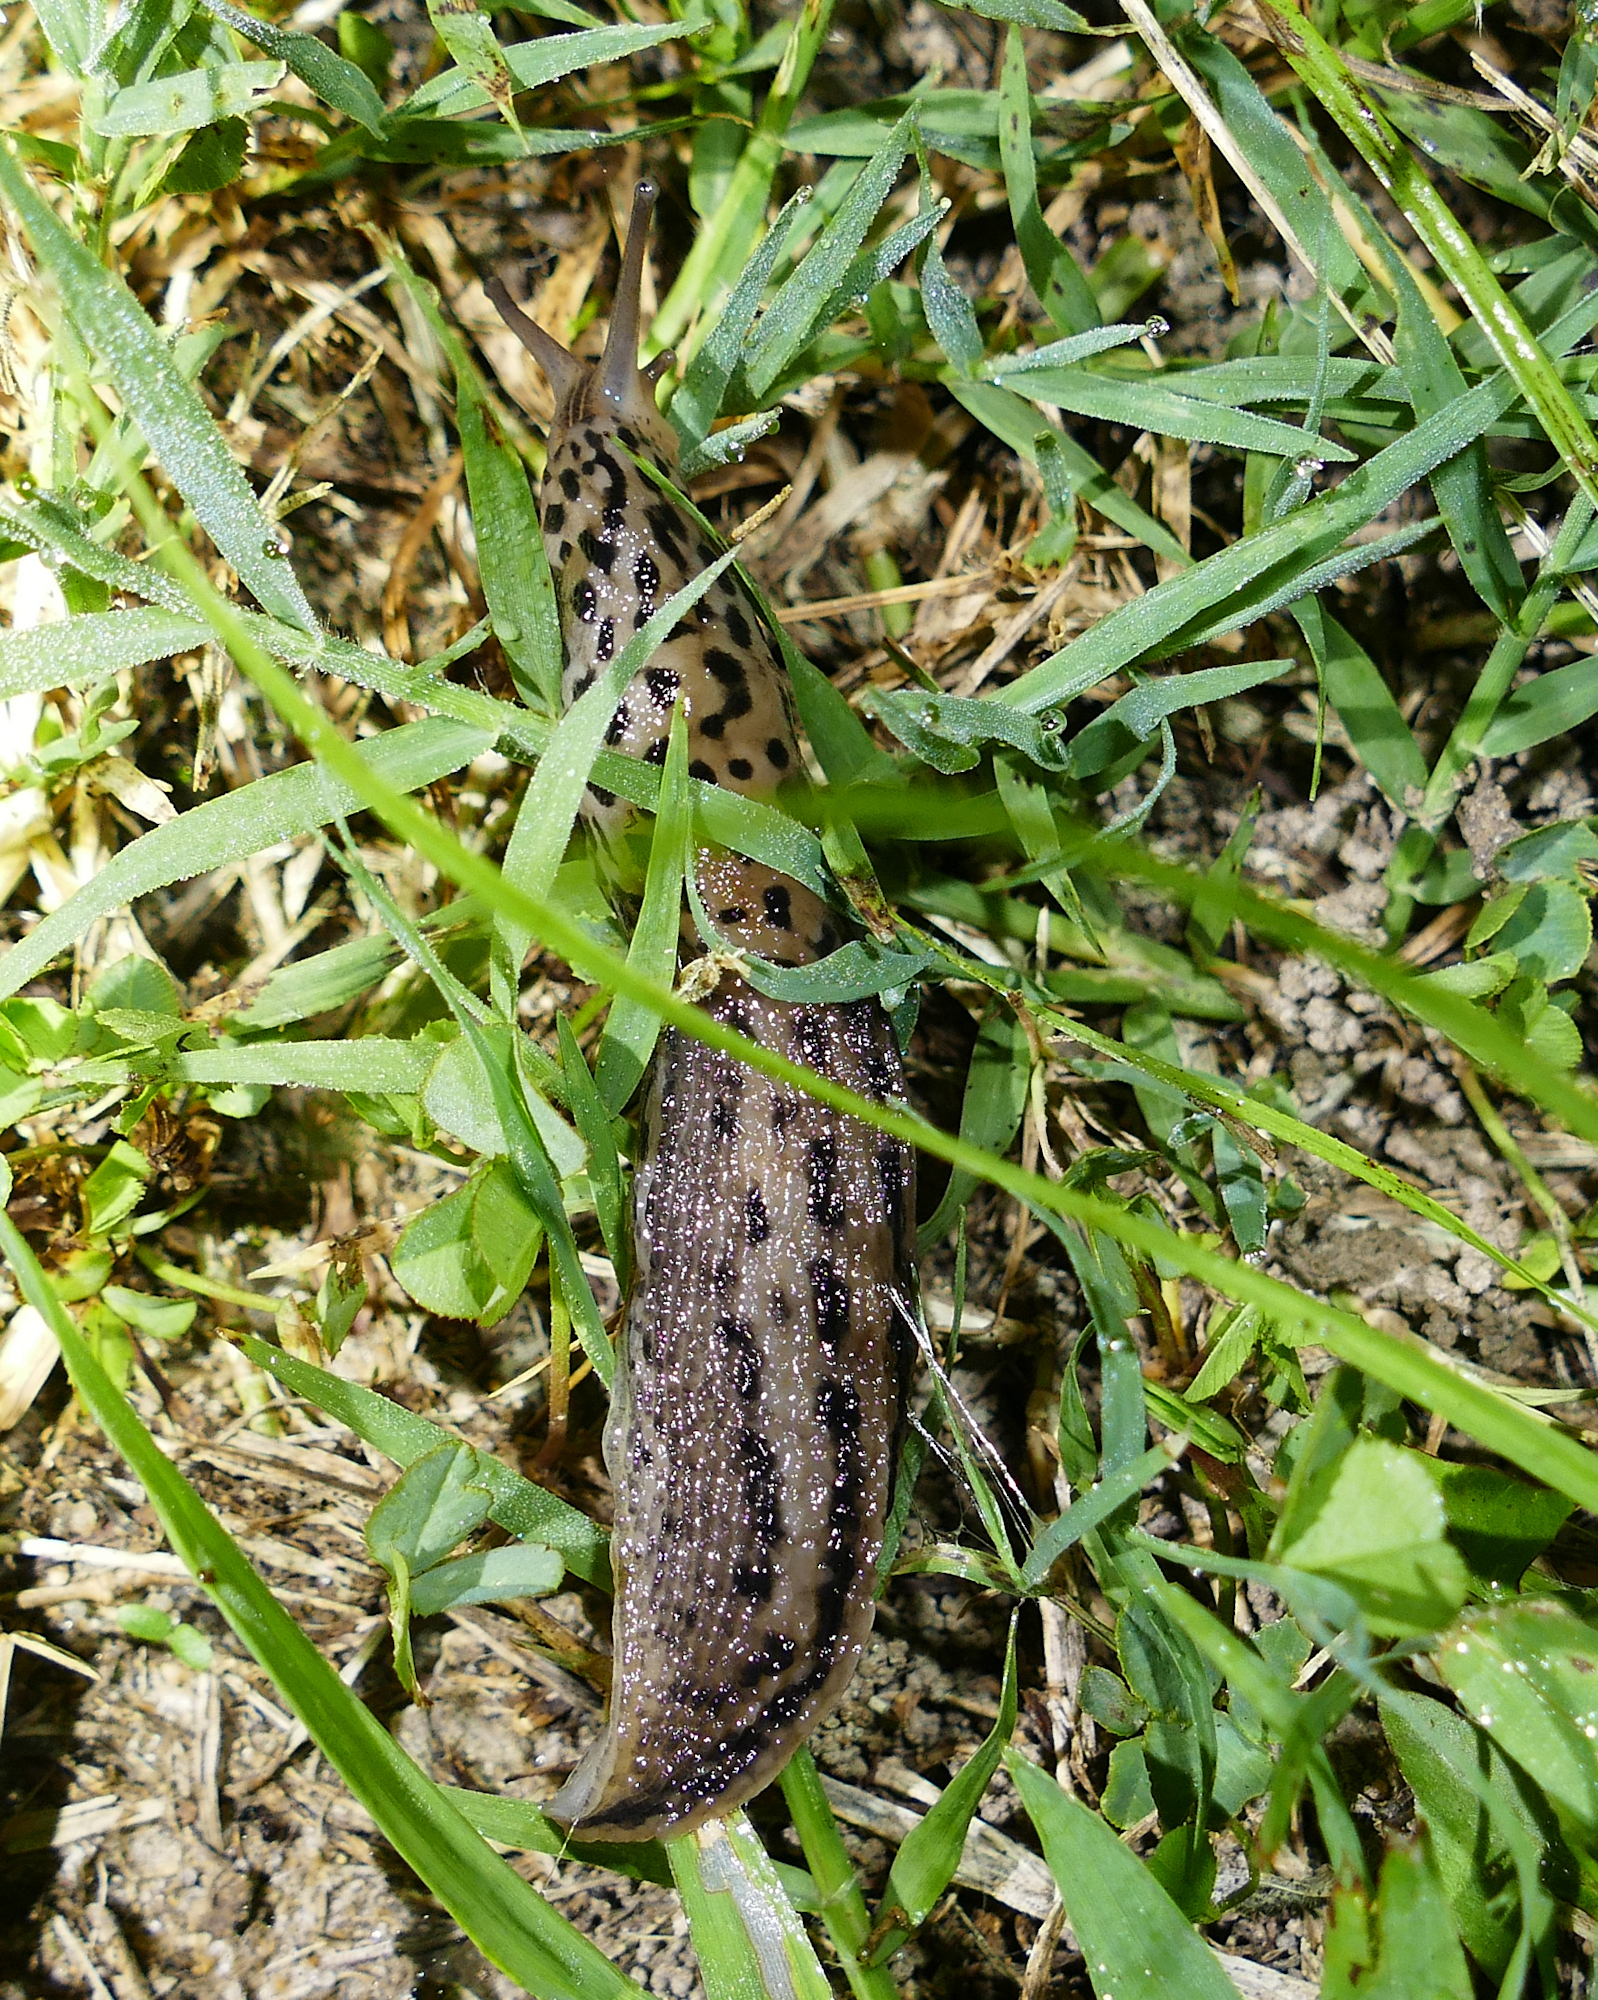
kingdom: Animalia
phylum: Mollusca
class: Gastropoda
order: Stylommatophora
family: Limacidae
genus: Limax
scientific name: Limax maximus
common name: Great grey slug
